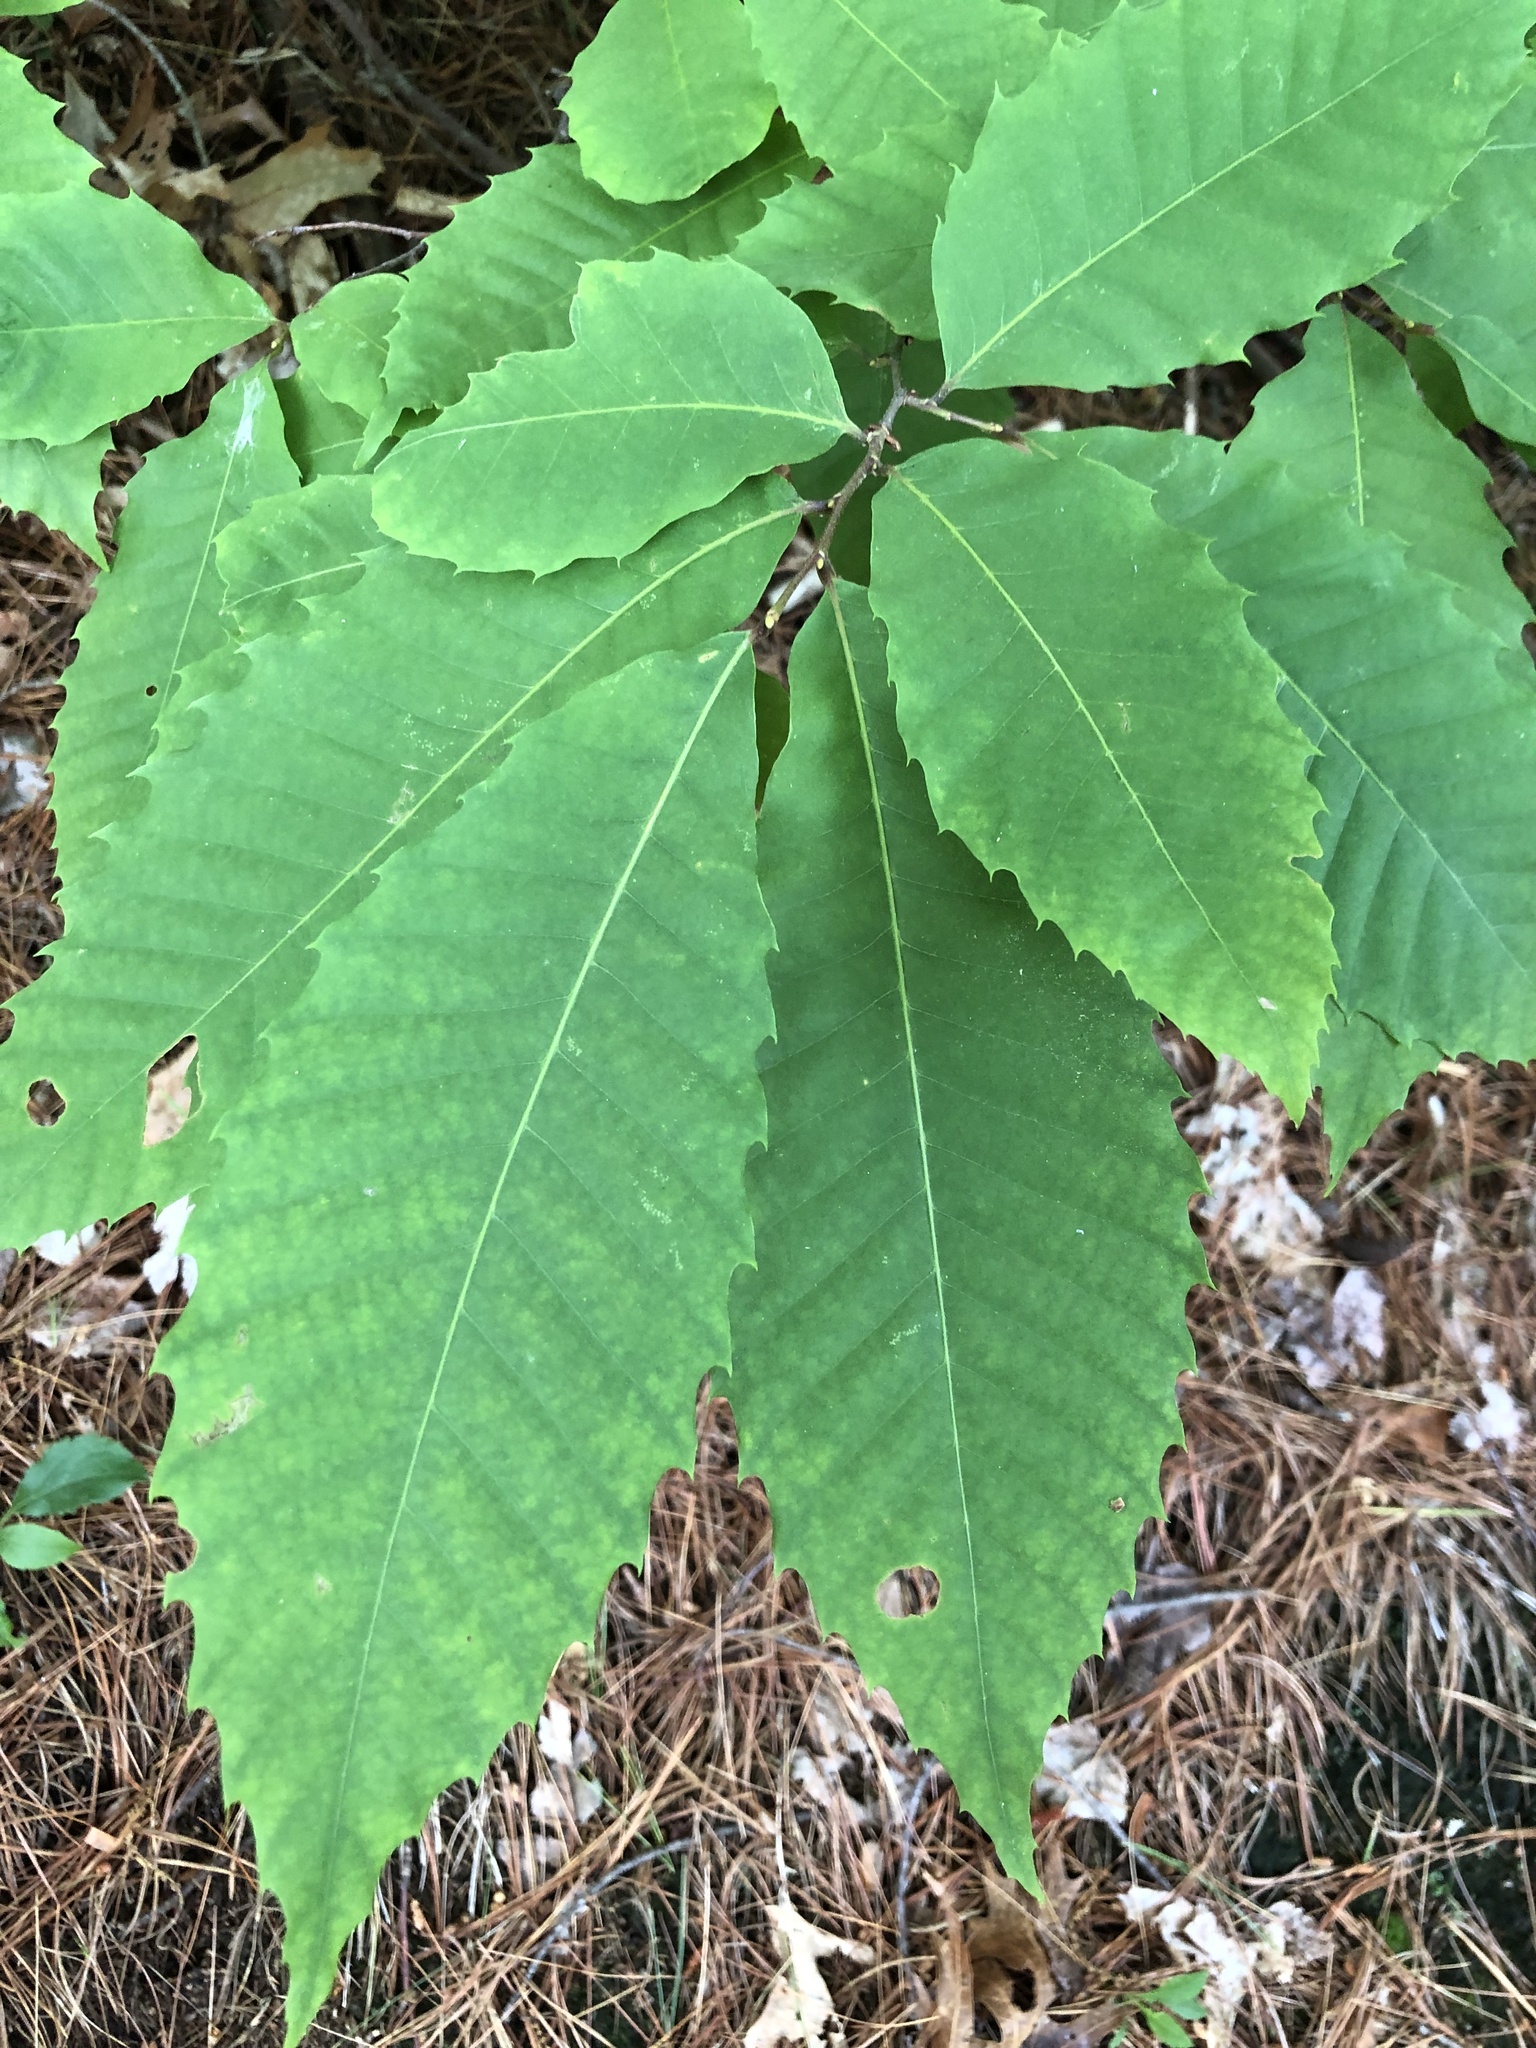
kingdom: Plantae
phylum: Tracheophyta
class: Magnoliopsida
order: Fagales
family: Fagaceae
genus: Castanea
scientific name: Castanea dentata
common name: American chestnut
